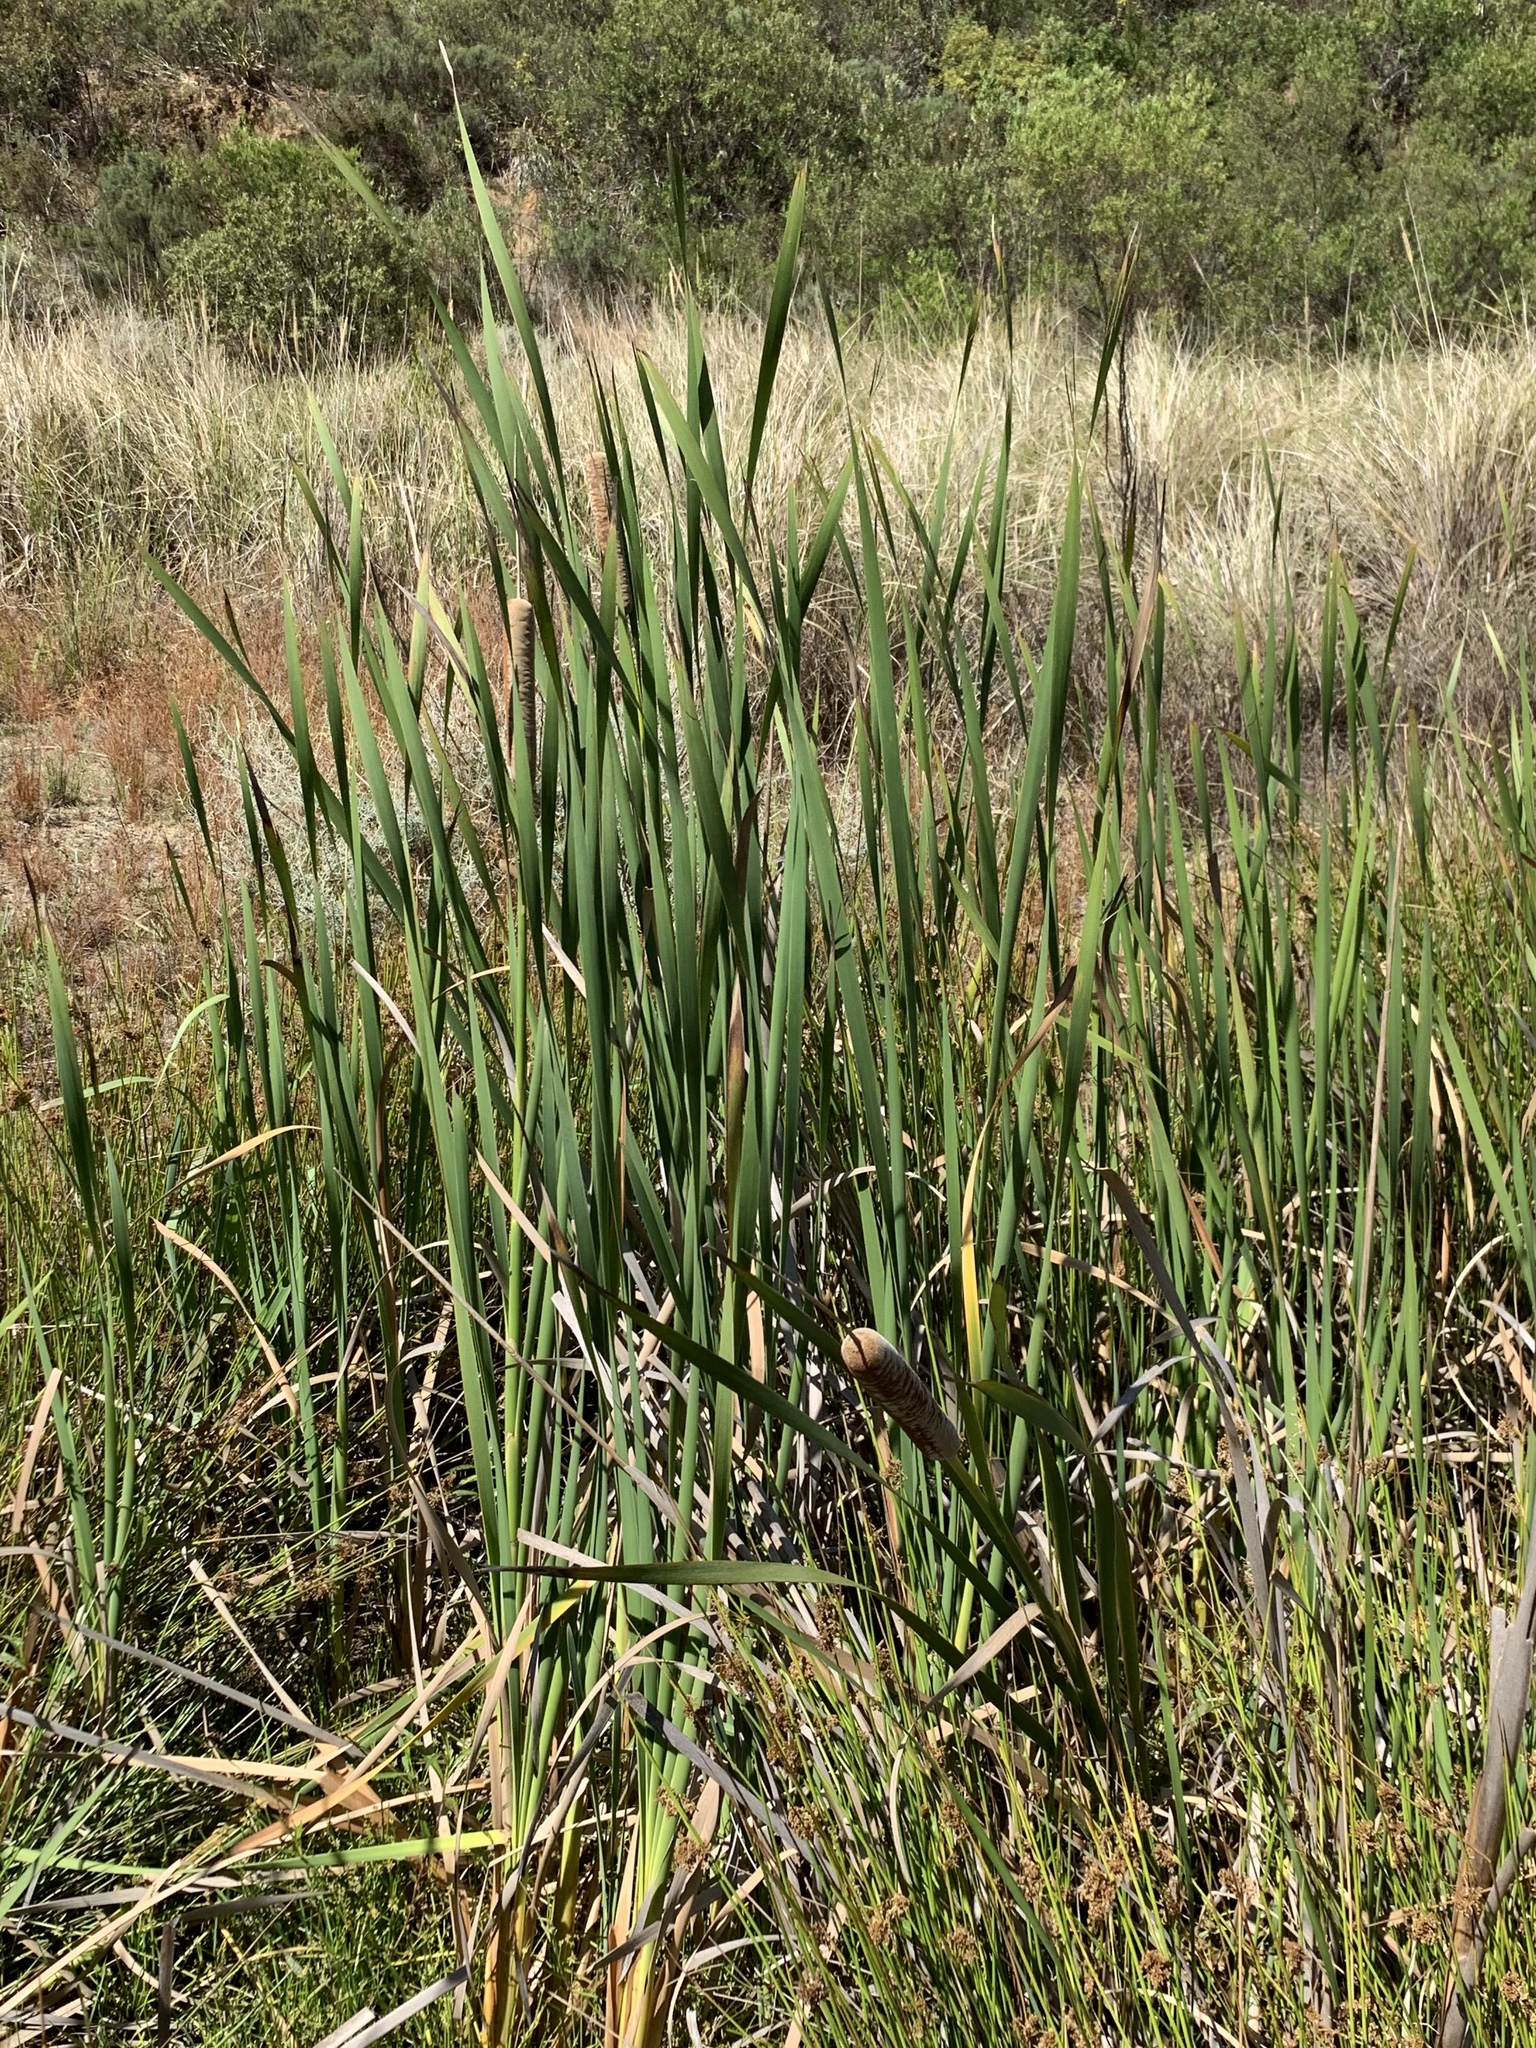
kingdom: Plantae
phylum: Tracheophyta
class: Liliopsida
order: Poales
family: Typhaceae
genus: Typha
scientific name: Typha capensis
